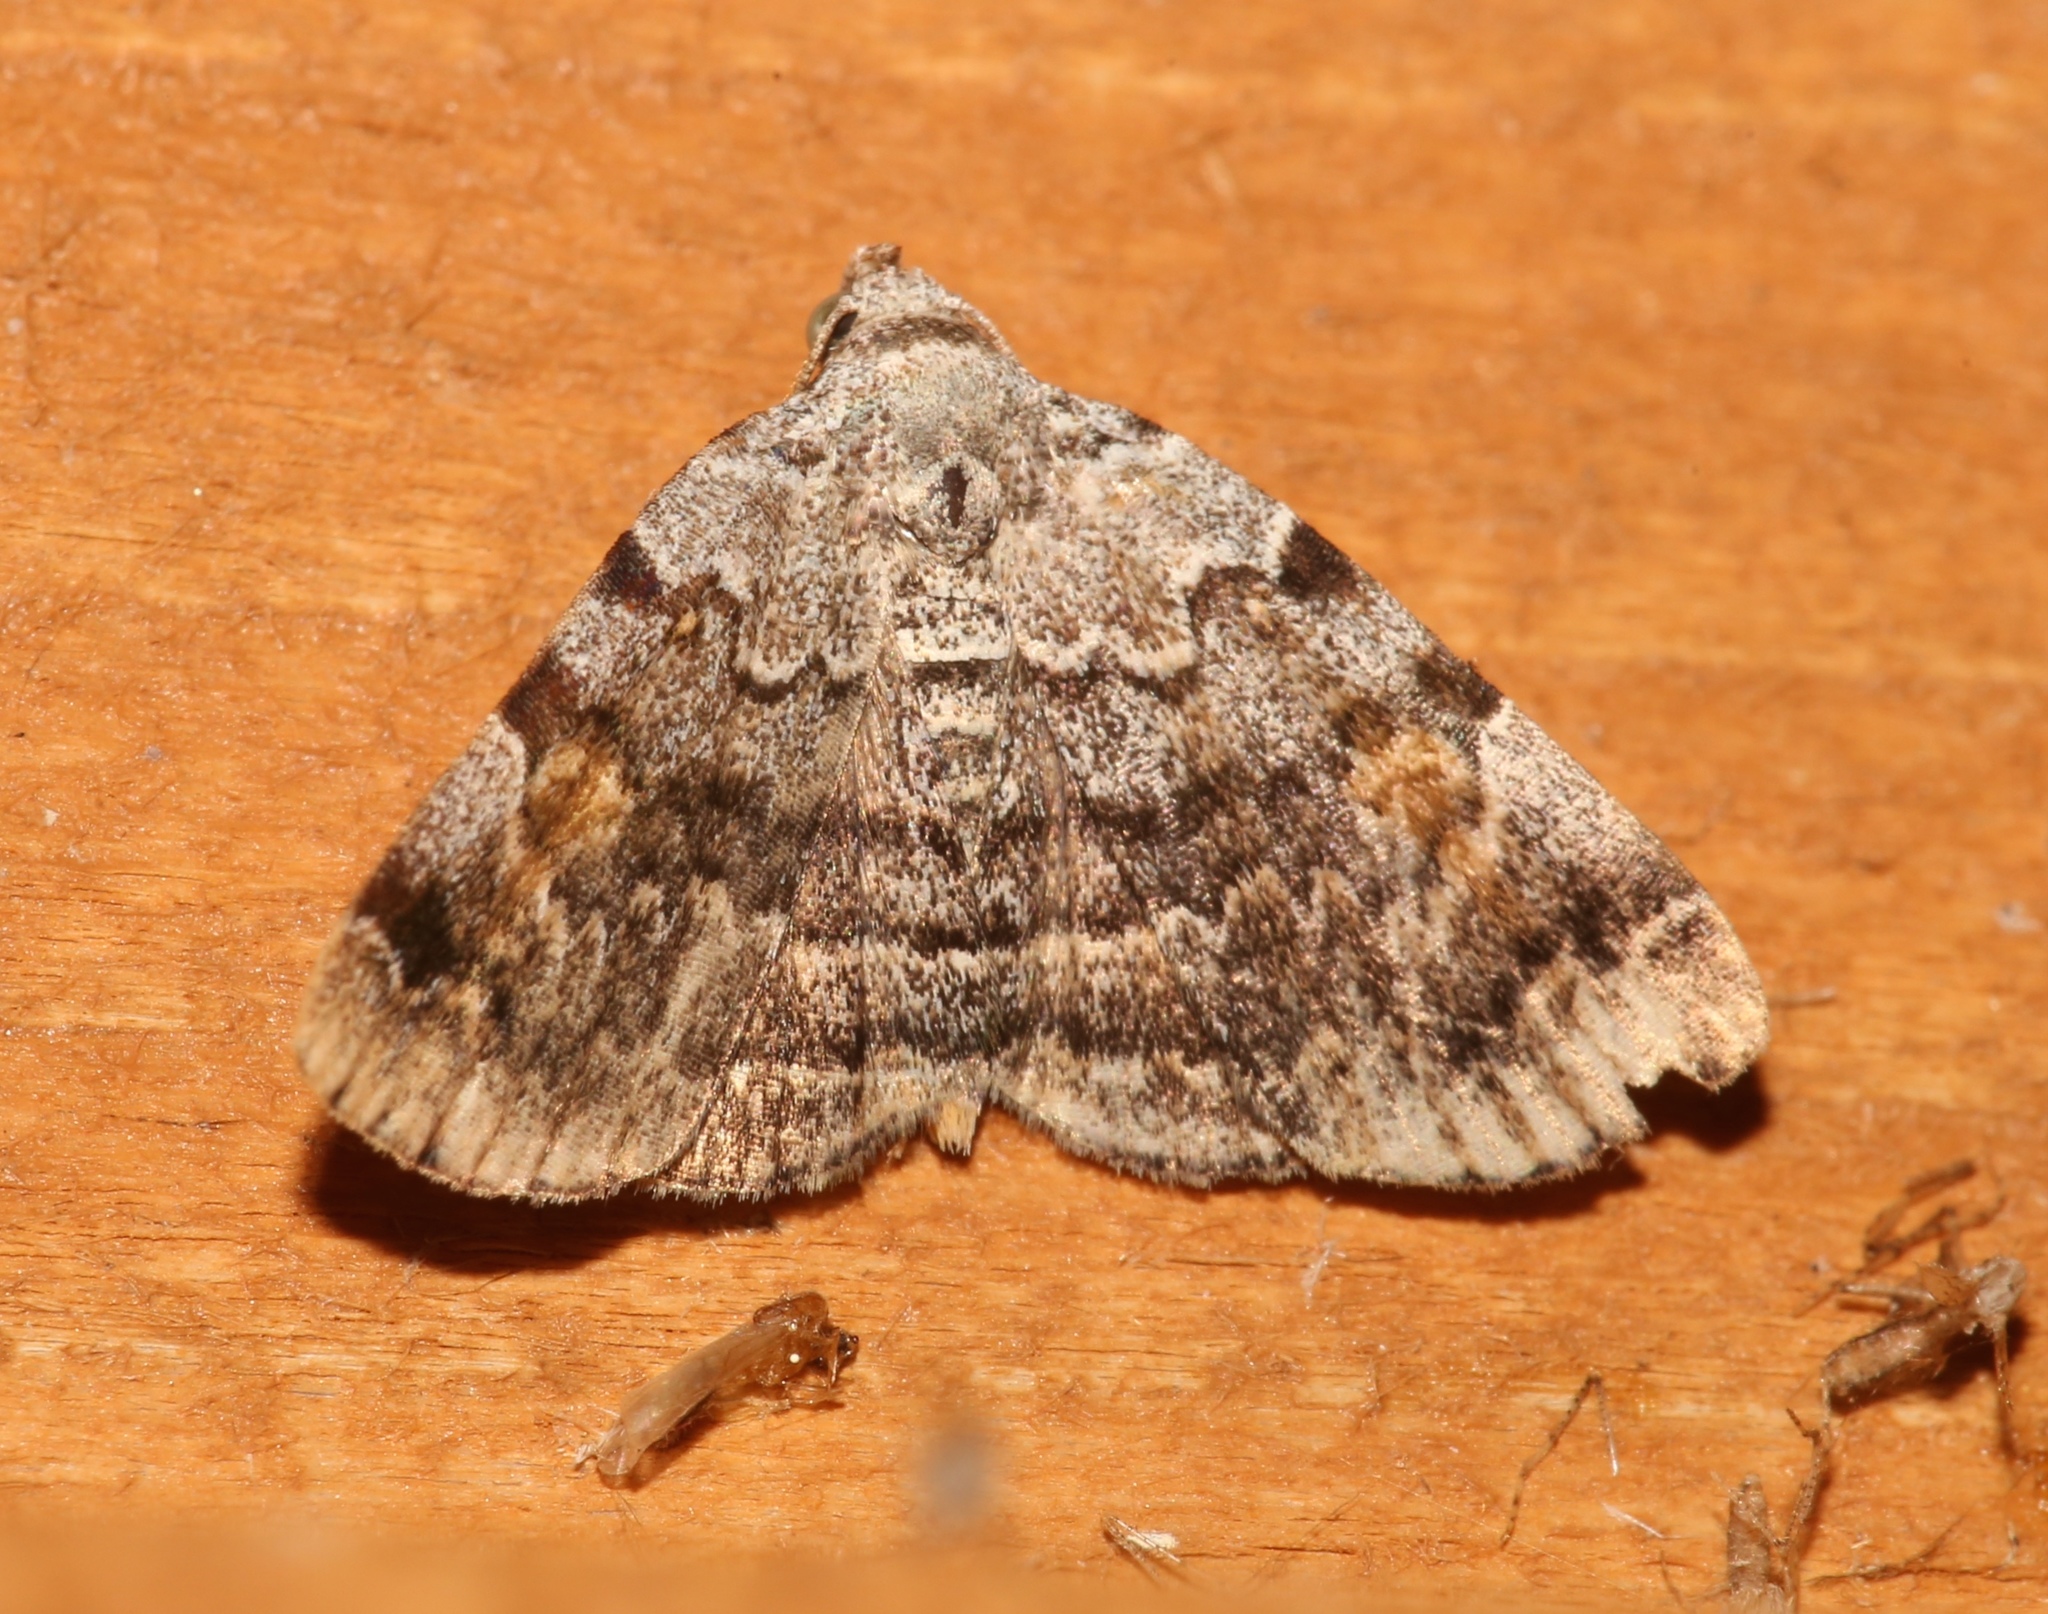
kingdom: Animalia
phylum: Arthropoda
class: Insecta
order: Lepidoptera
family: Erebidae
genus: Idia
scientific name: Idia americalis
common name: American idia moth
